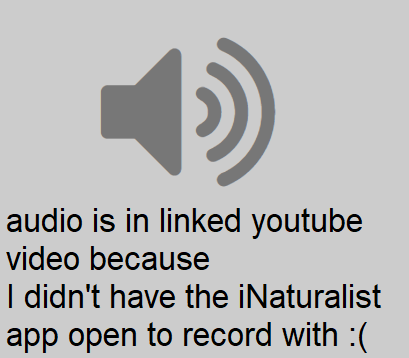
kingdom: Animalia
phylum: Chordata
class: Aves
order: Passeriformes
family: Sittidae
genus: Sitta
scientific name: Sitta pusilla
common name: Brown-headed nuthatch
